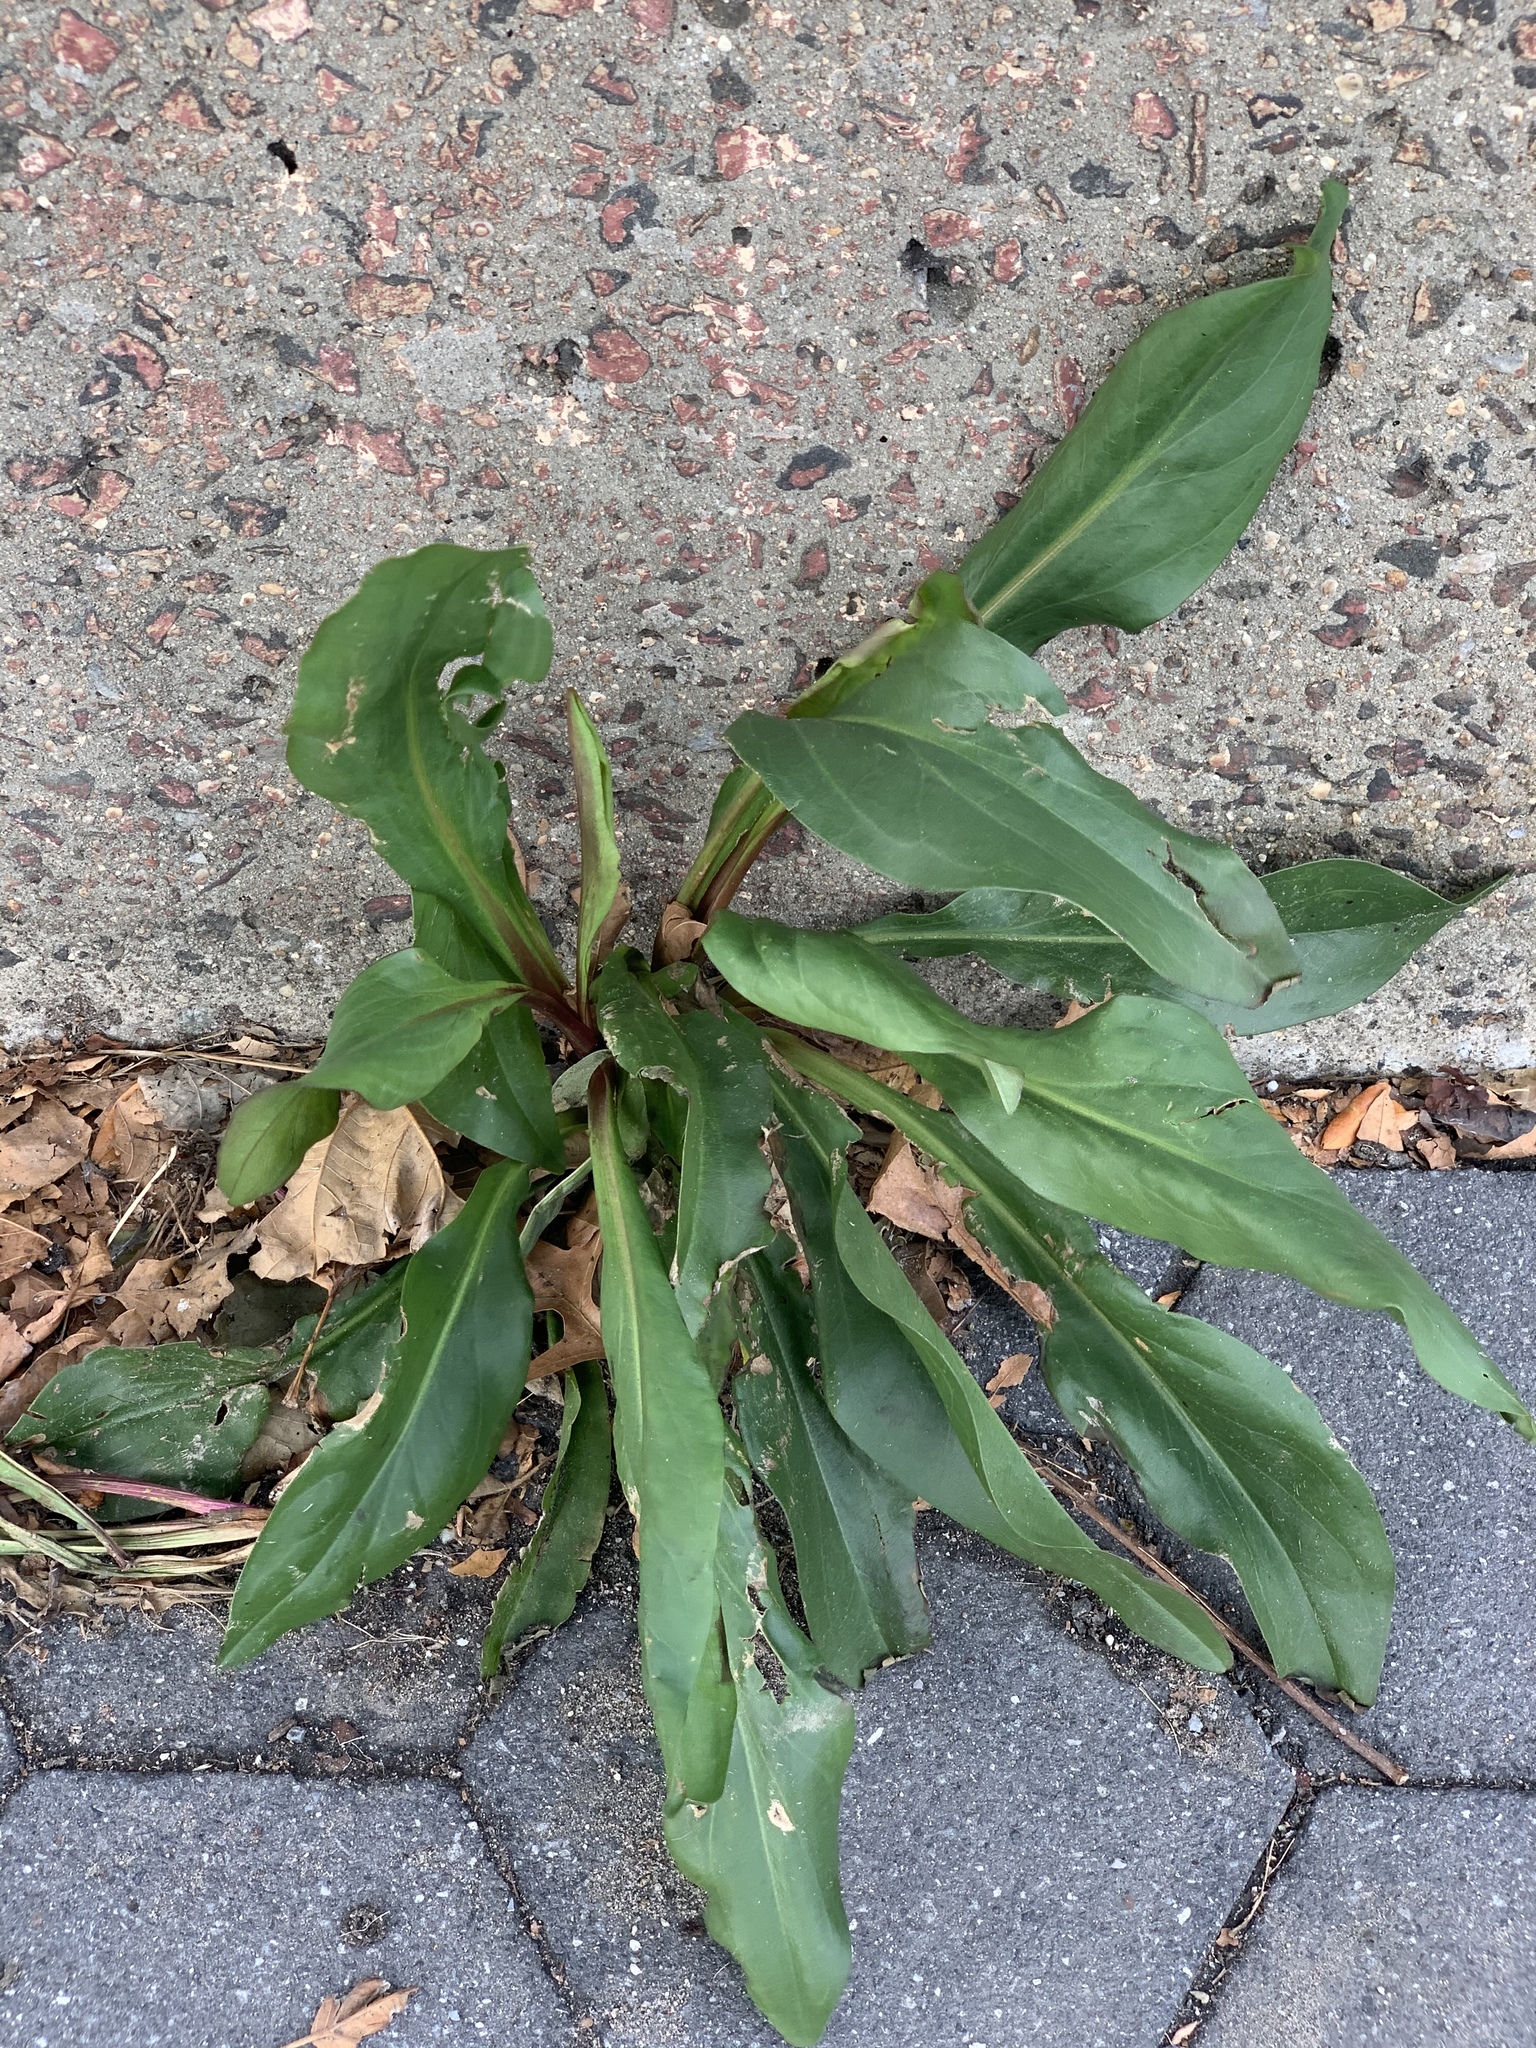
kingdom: Plantae
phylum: Tracheophyta
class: Magnoliopsida
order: Asterales
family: Asteraceae
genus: Solidago
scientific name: Solidago sempervirens
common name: Salt-marsh goldenrod
